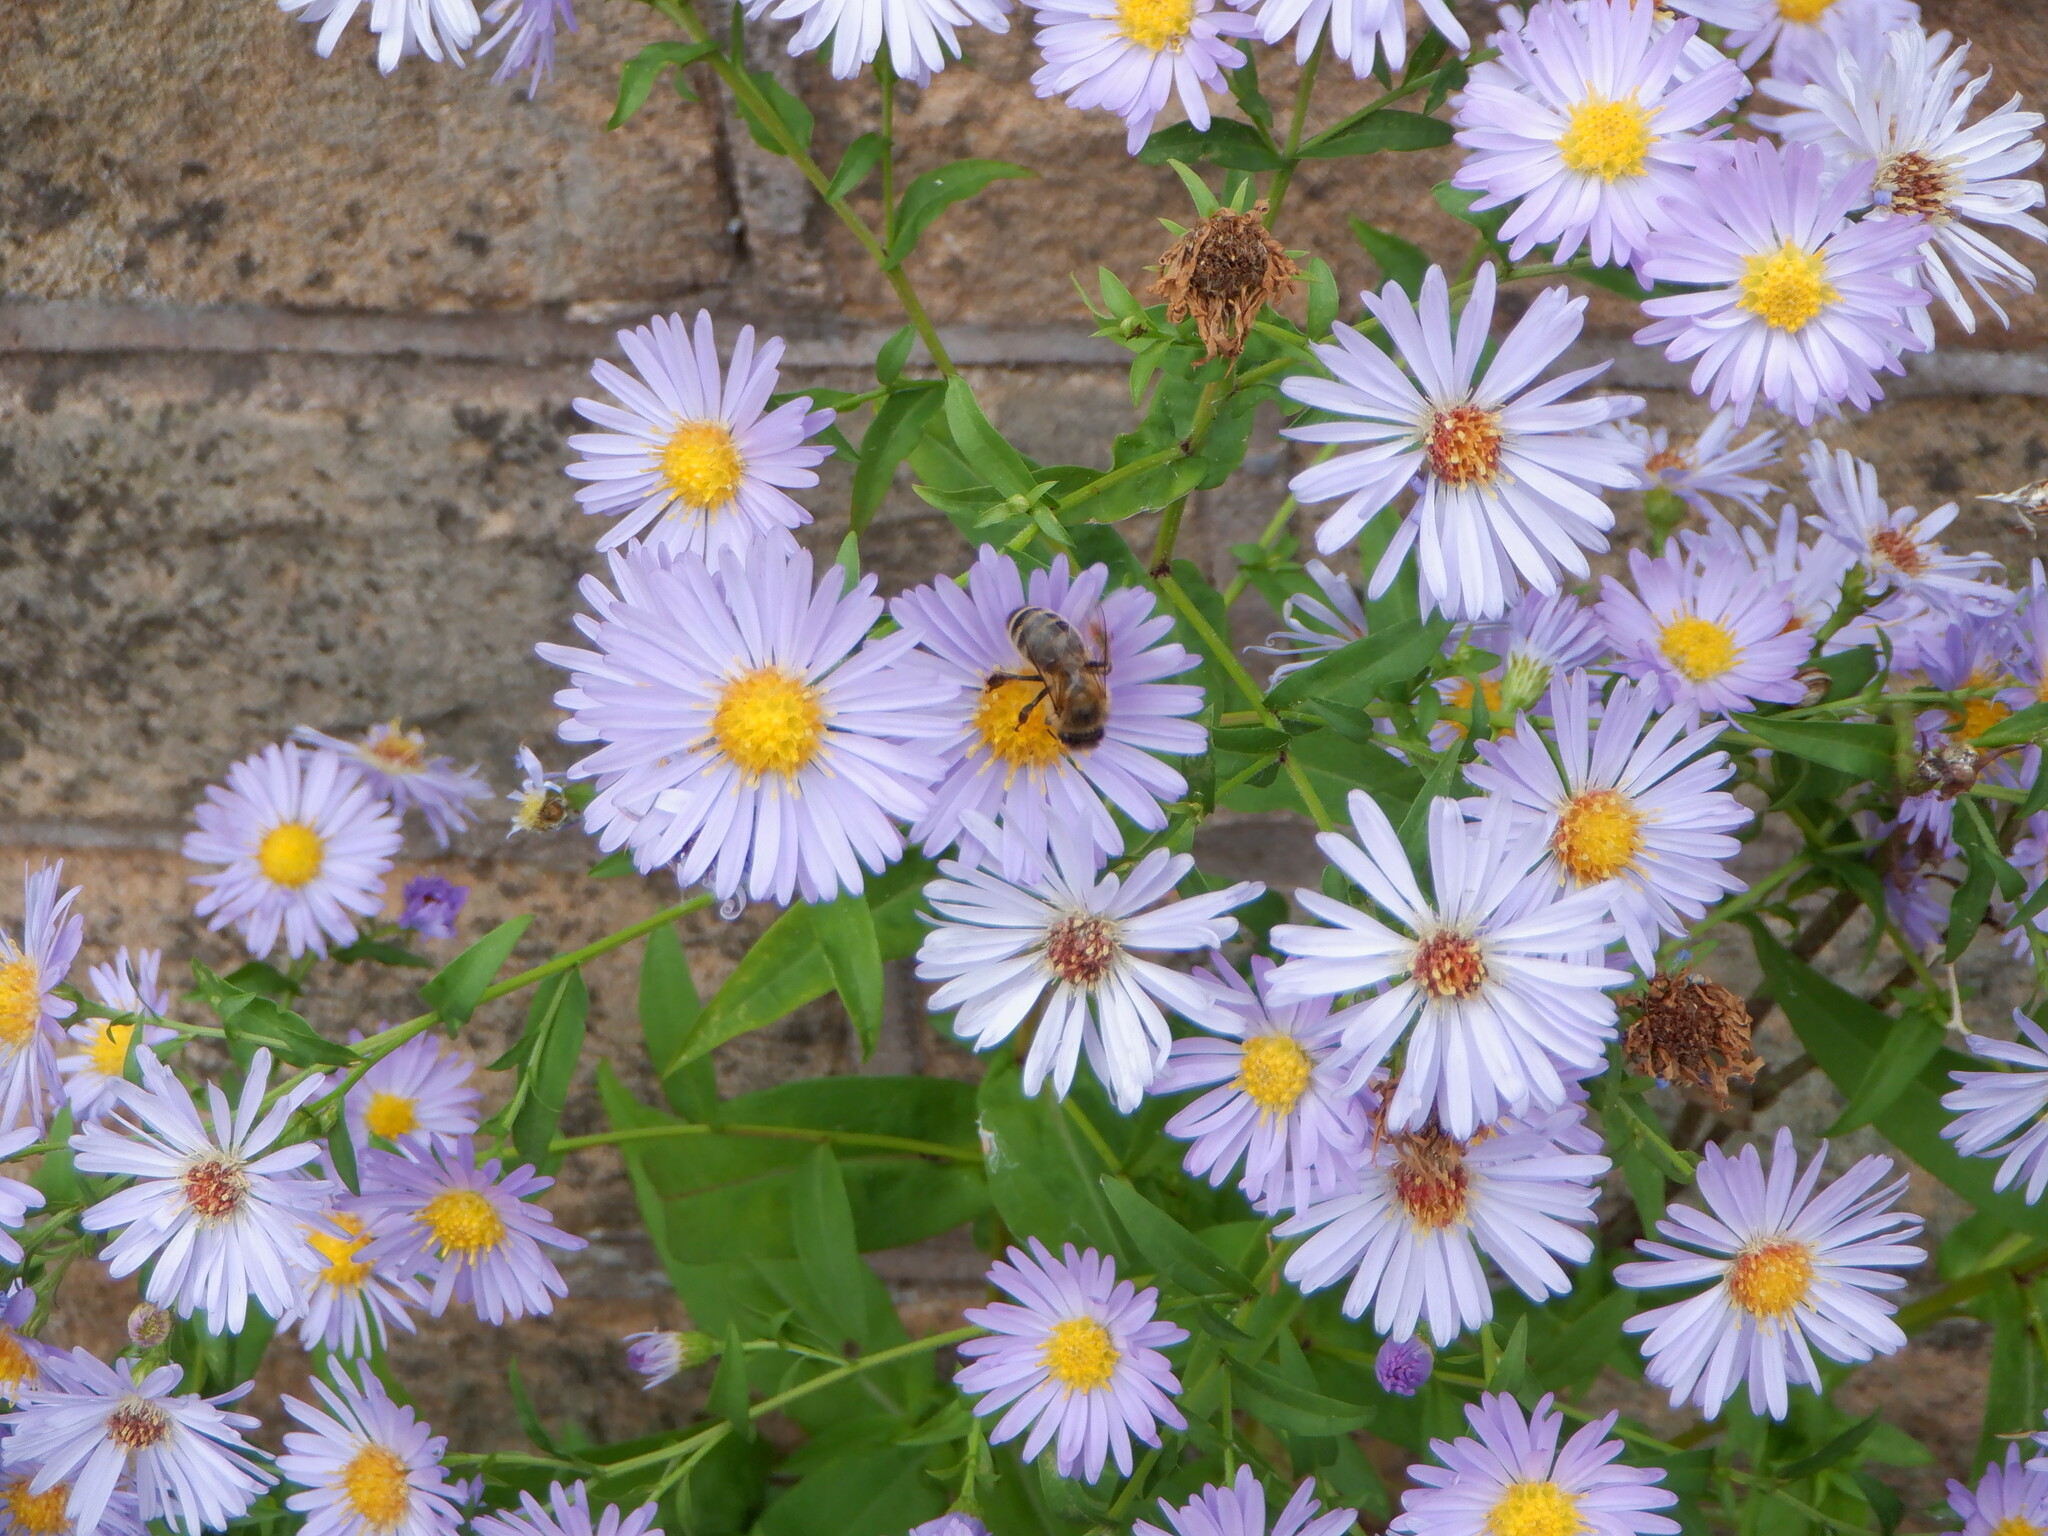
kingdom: Animalia
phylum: Arthropoda
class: Insecta
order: Hymenoptera
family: Apidae
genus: Apis
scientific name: Apis mellifera
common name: Honey bee
